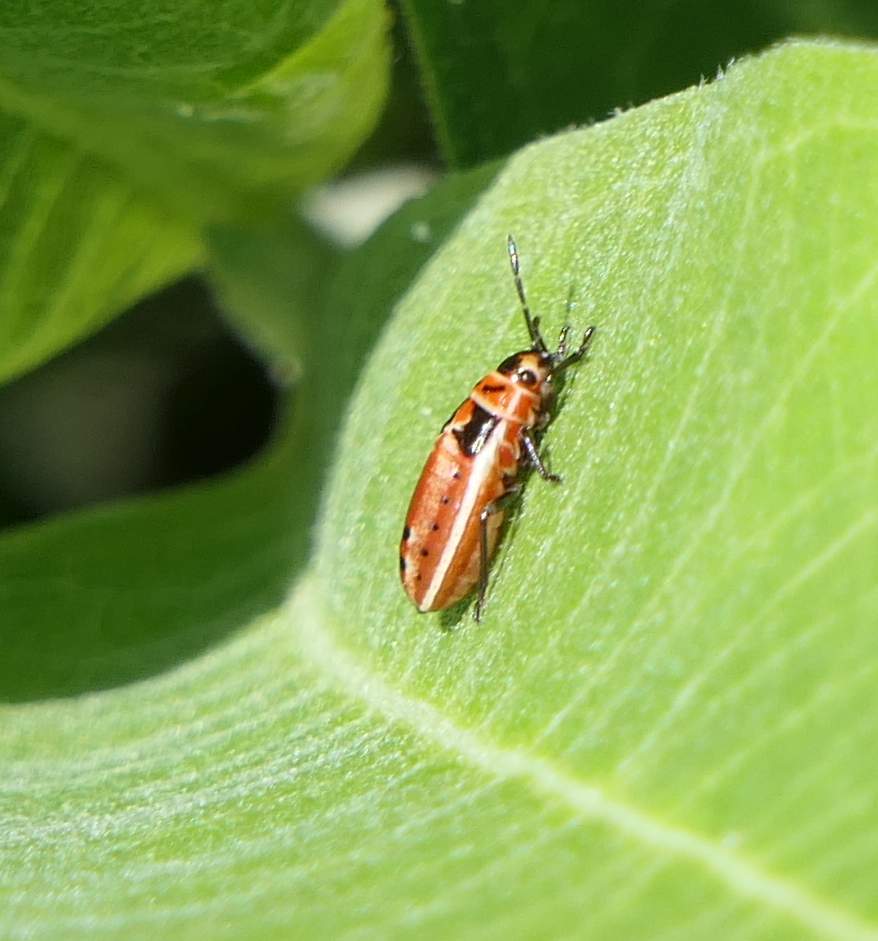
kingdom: Animalia
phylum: Arthropoda
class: Insecta
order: Hemiptera
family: Lygaeidae
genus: Lygaeus
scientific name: Lygaeus kalmii
